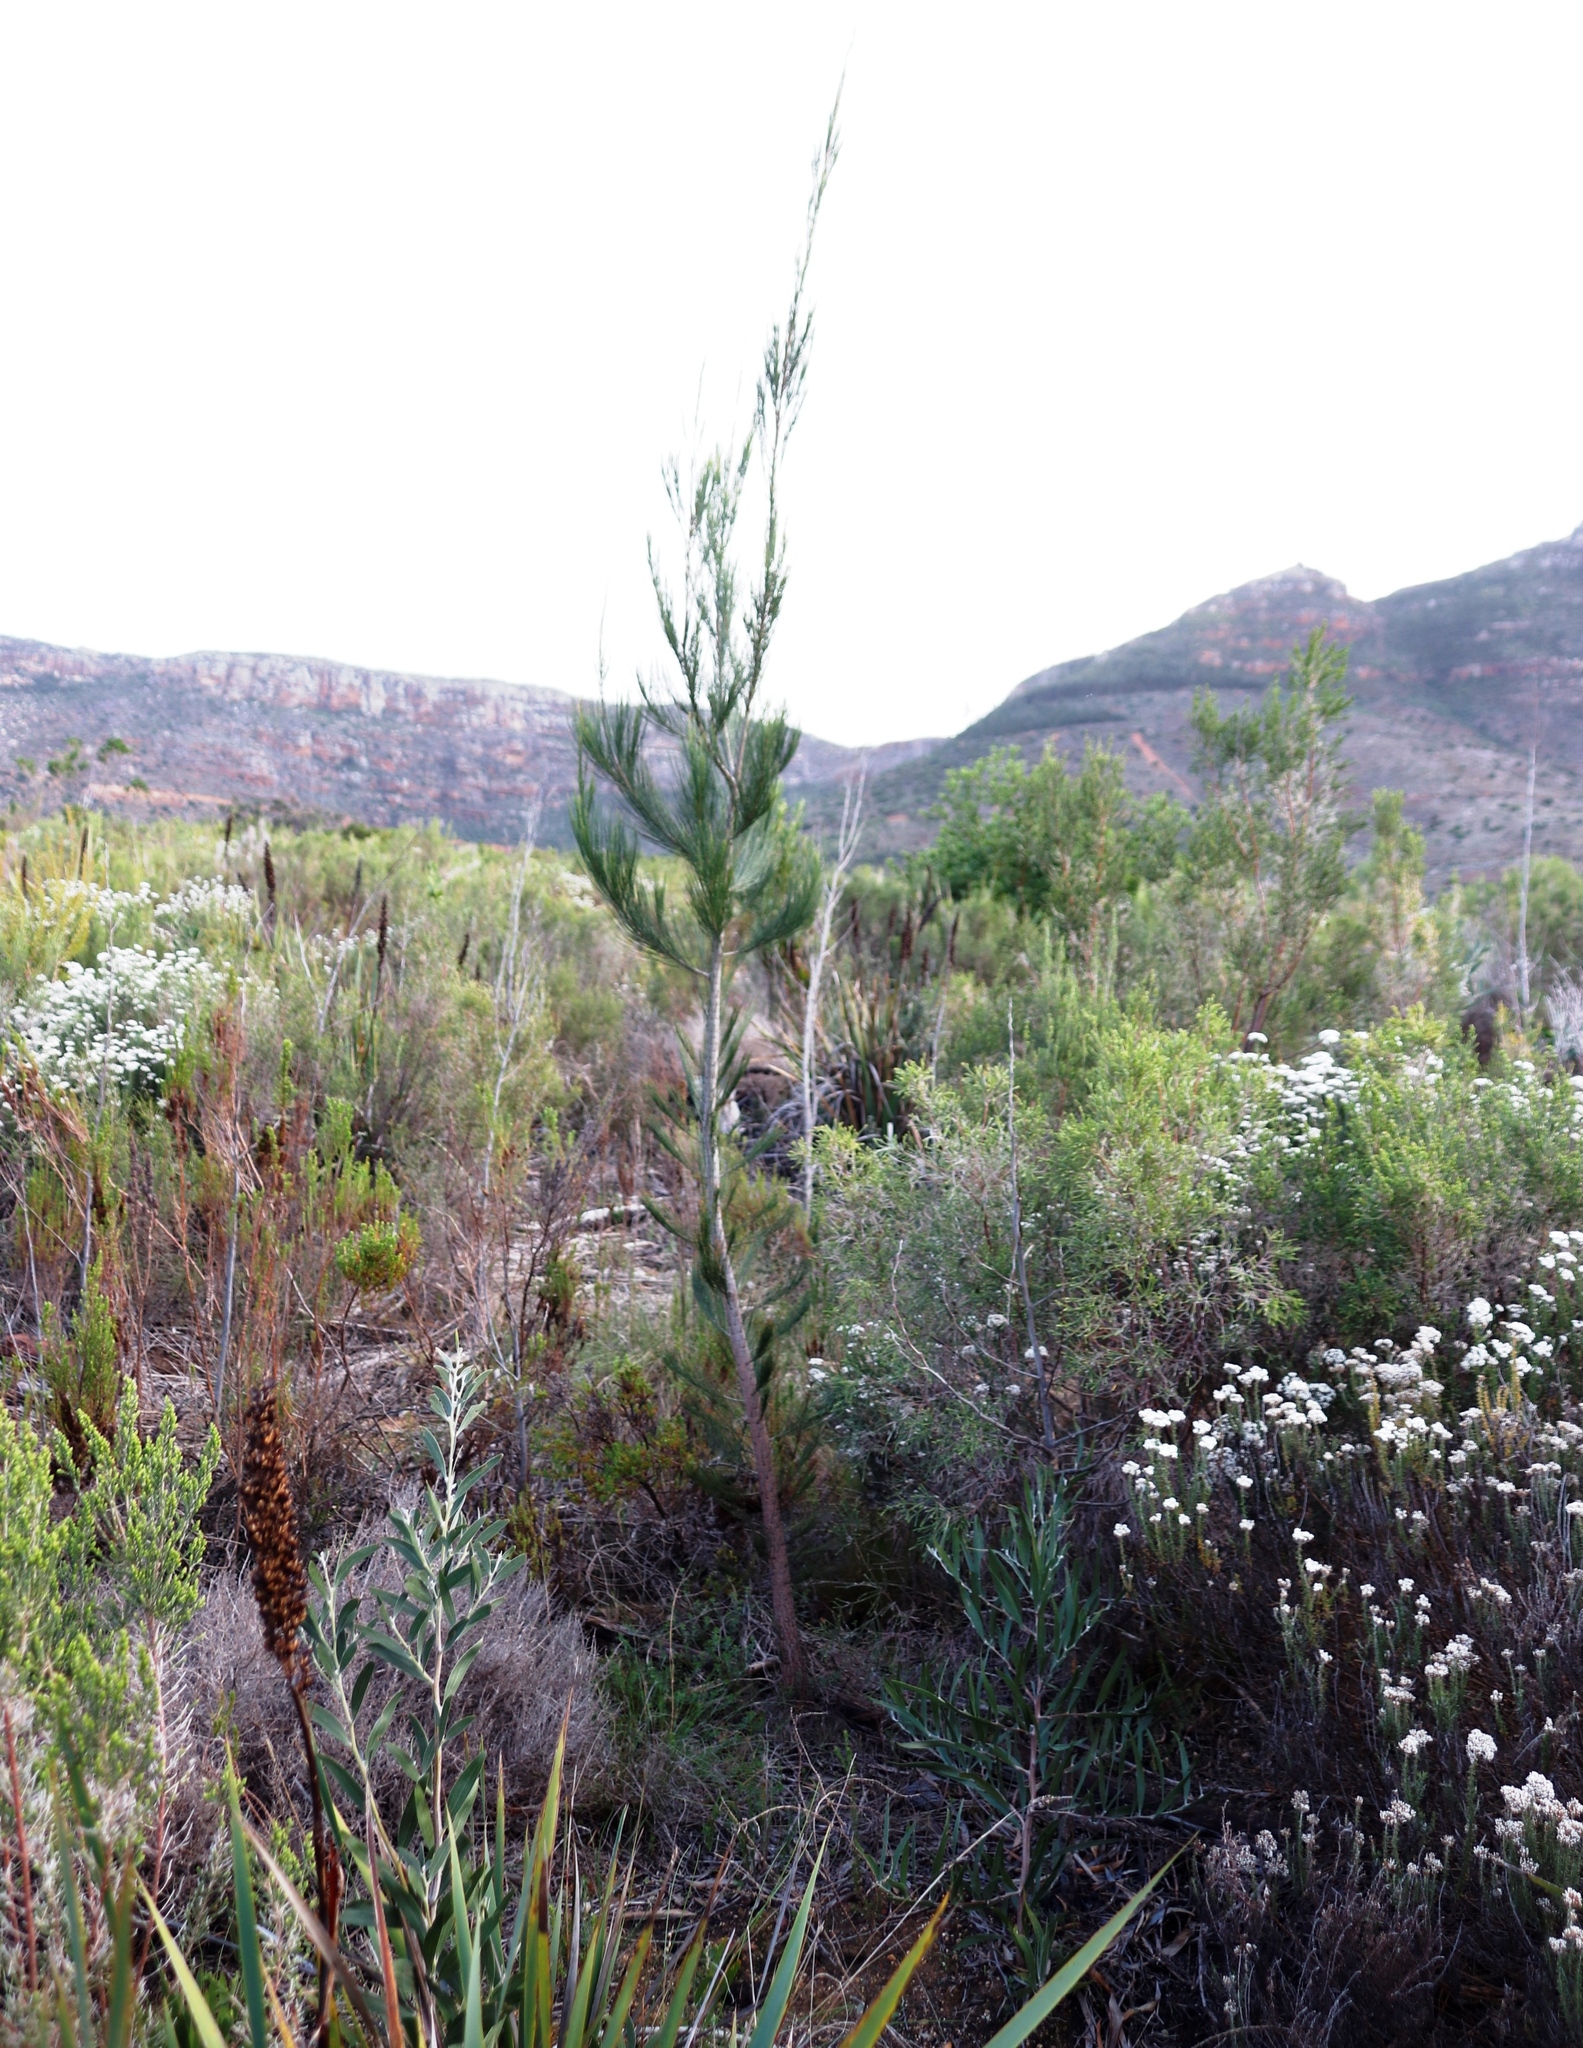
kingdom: Plantae
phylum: Tracheophyta
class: Magnoliopsida
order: Fagales
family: Casuarinaceae
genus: Allocasuarina
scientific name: Allocasuarina littoralis
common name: Black she-oak
